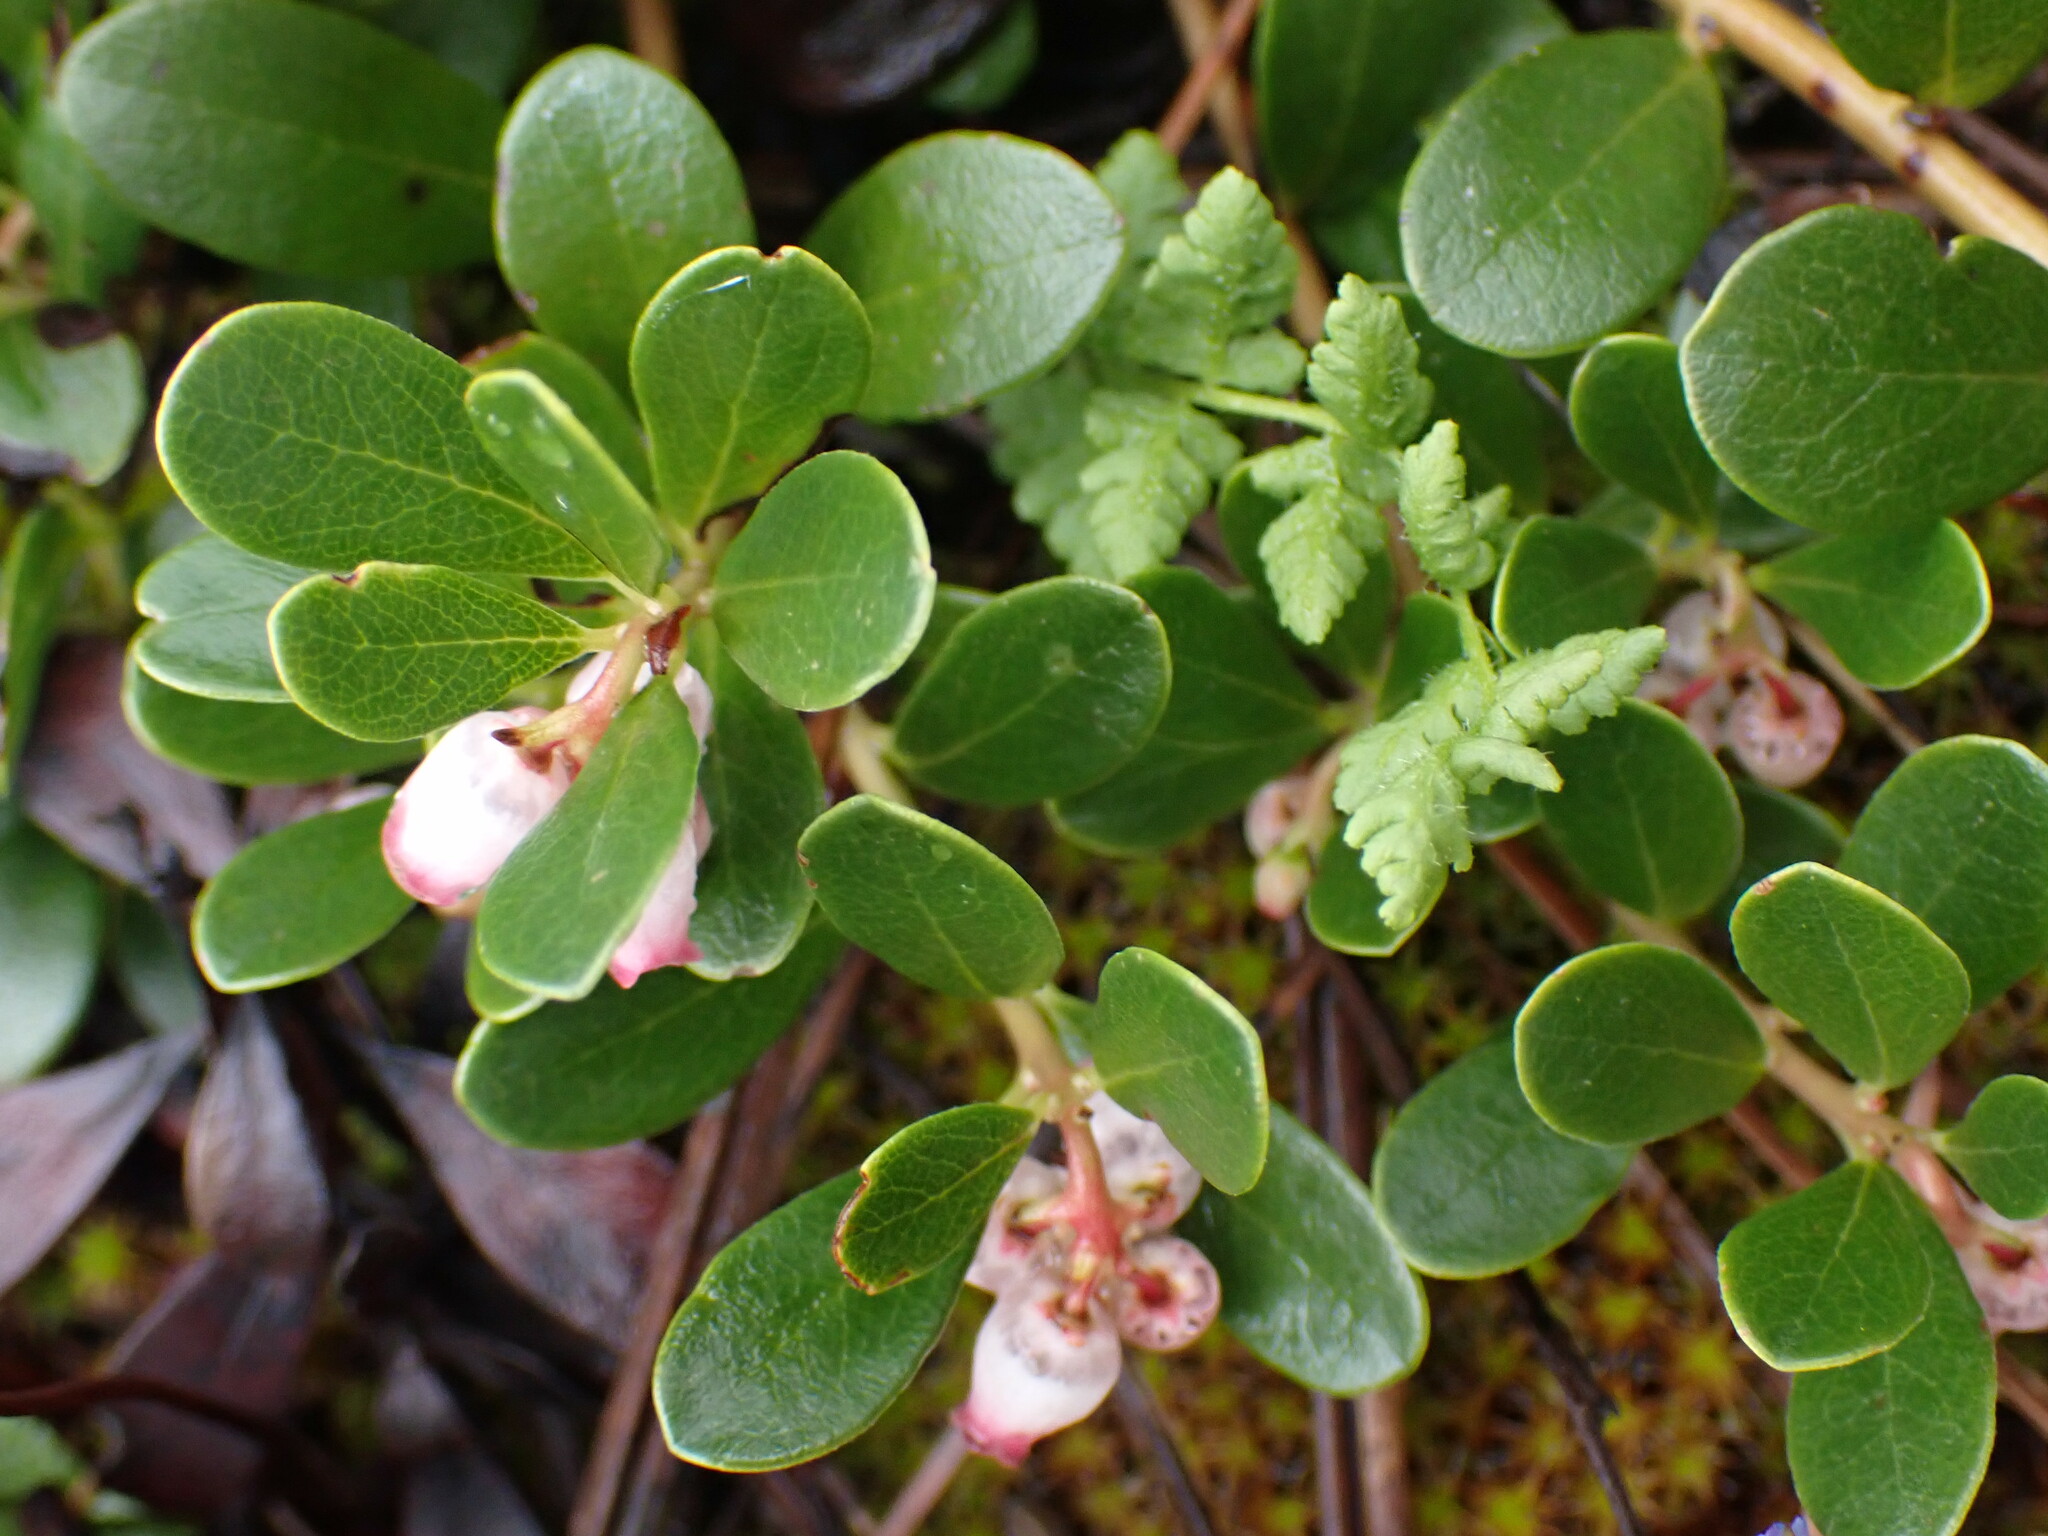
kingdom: Plantae
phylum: Tracheophyta
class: Magnoliopsida
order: Ericales
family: Ericaceae
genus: Arctostaphylos
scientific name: Arctostaphylos uva-ursi
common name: Bearberry
